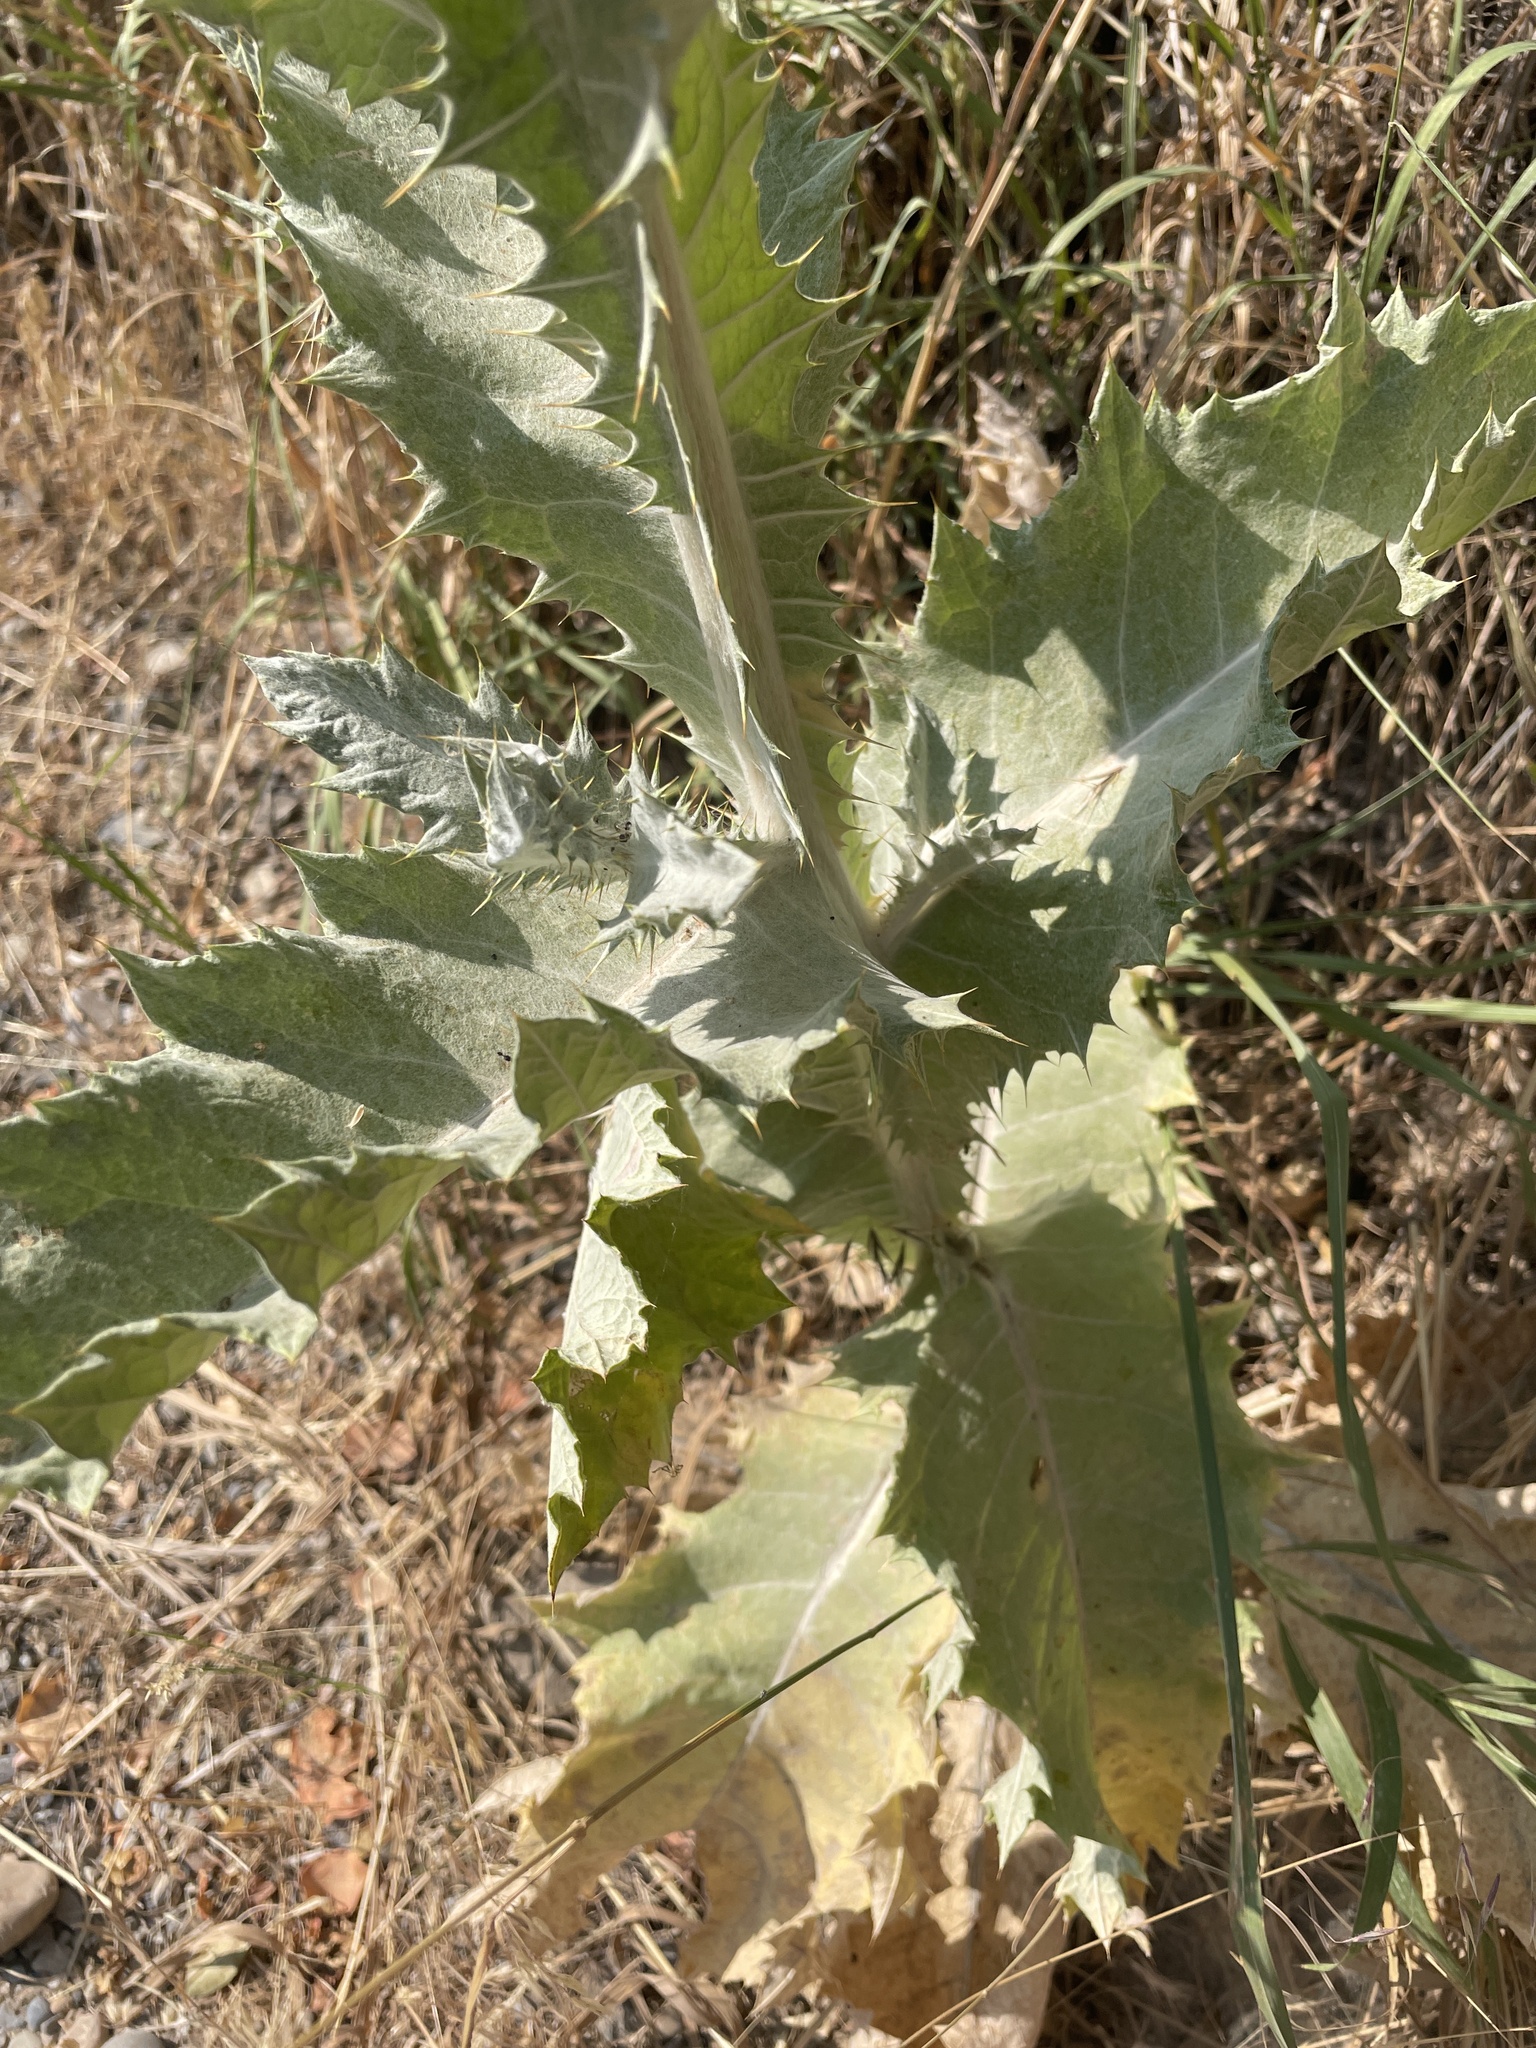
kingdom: Plantae
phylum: Tracheophyta
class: Magnoliopsida
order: Asterales
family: Asteraceae
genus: Onopordum
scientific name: Onopordum acanthium
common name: Scotch thistle
